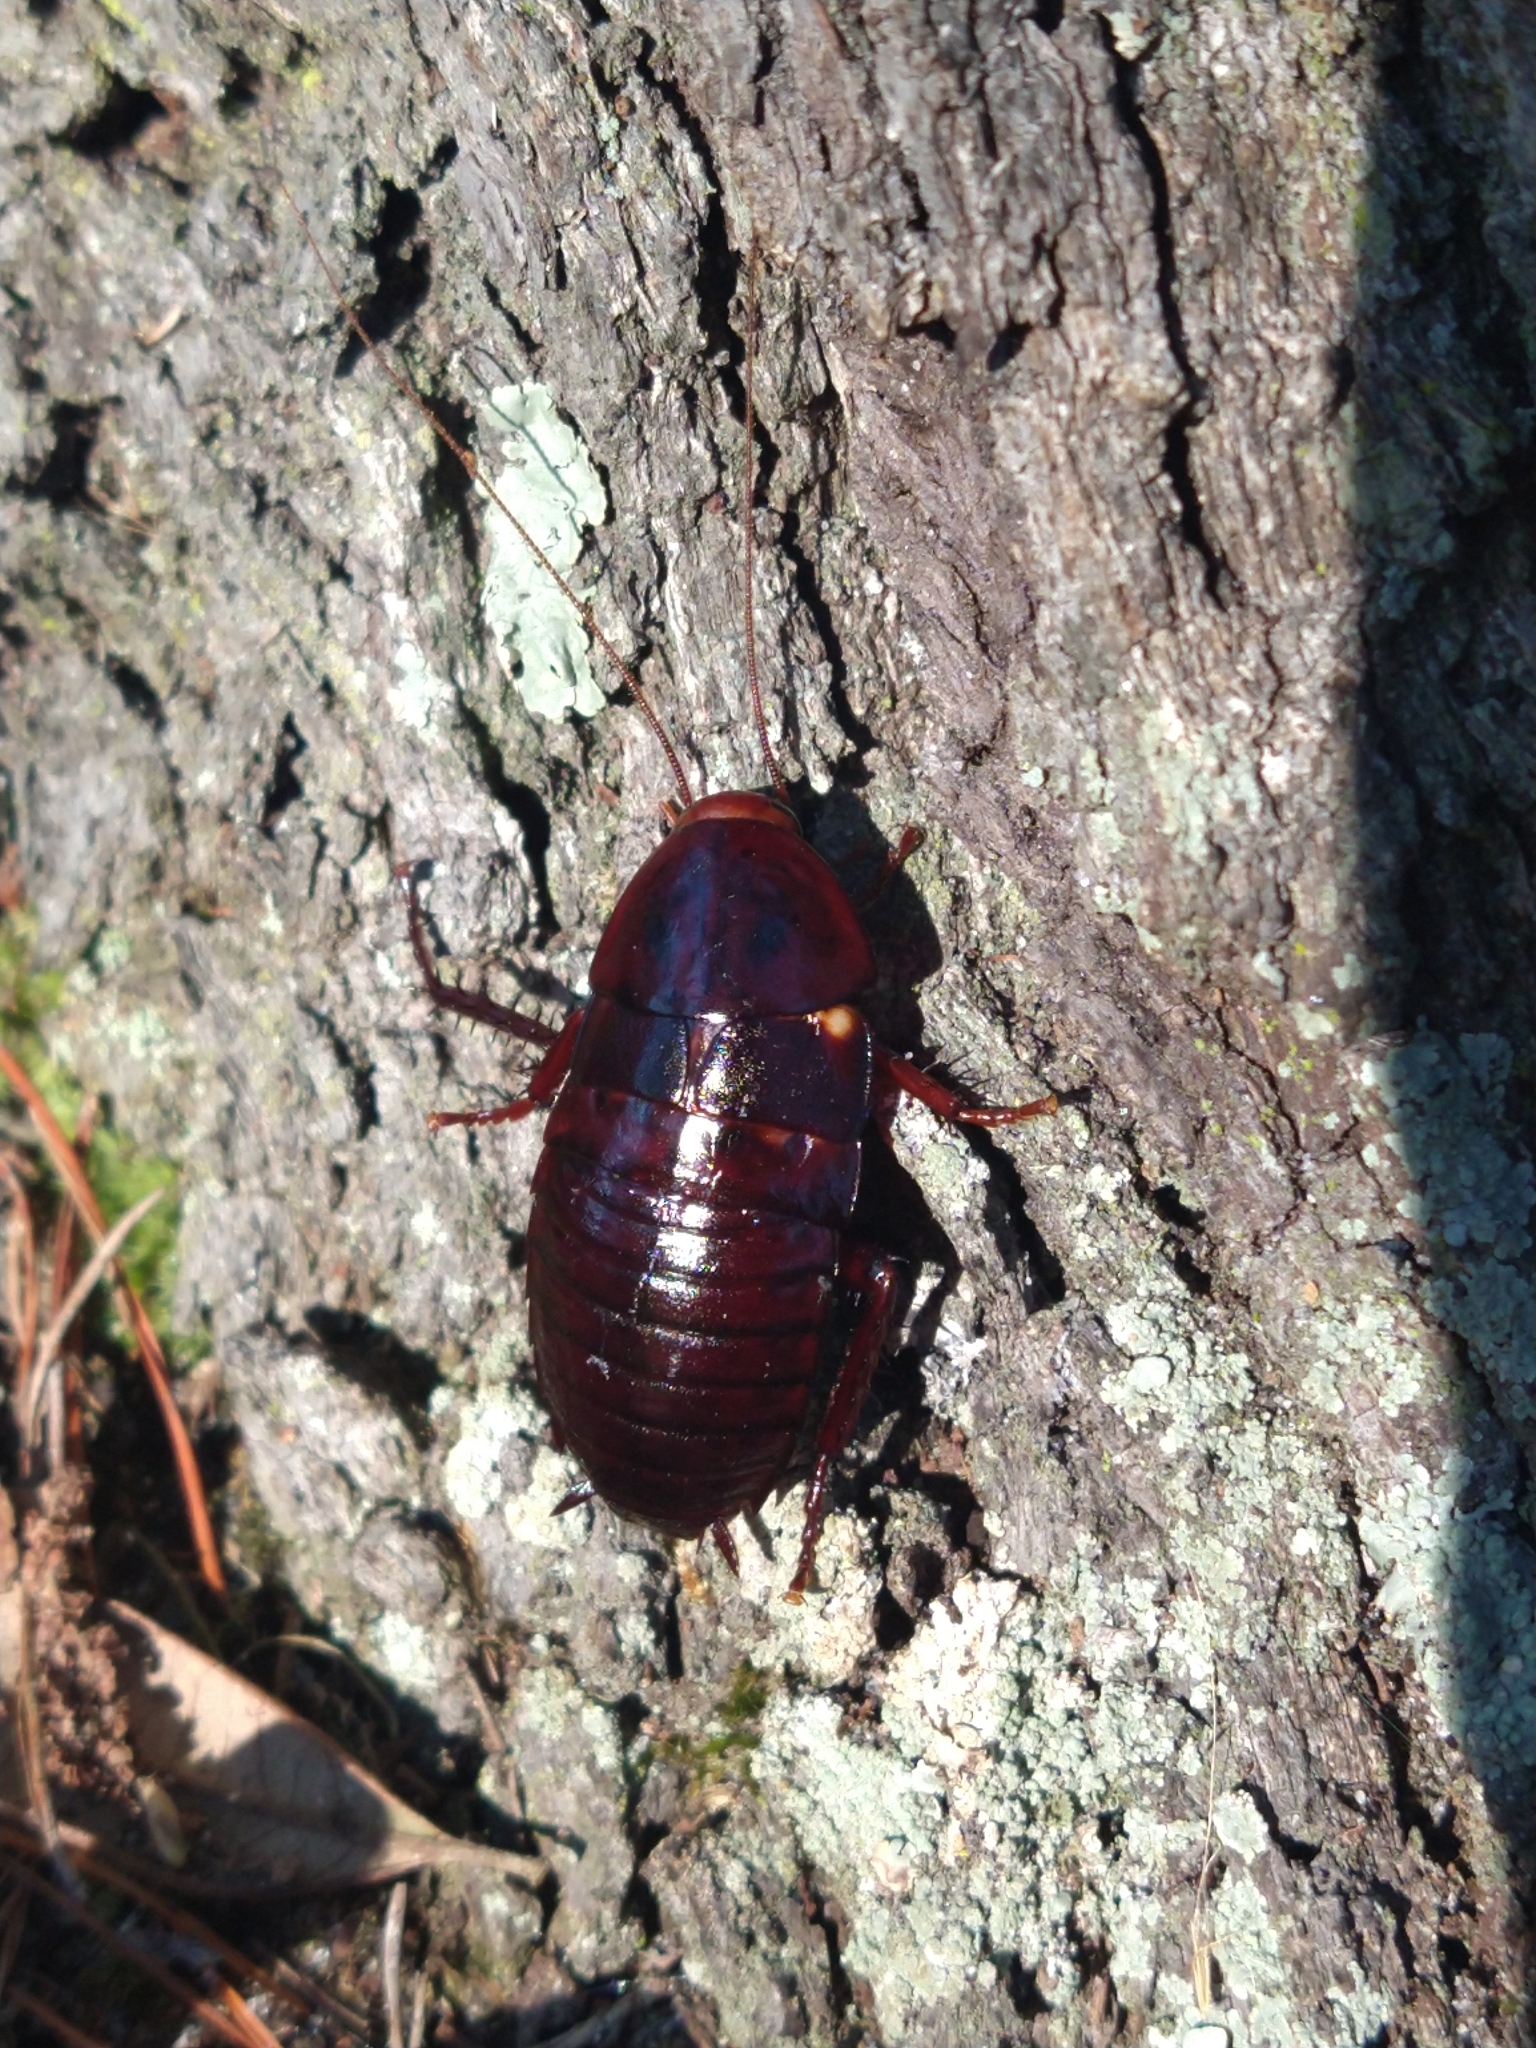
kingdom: Animalia
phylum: Arthropoda
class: Insecta
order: Blattodea
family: Blattidae
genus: Eurycotis
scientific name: Eurycotis floridana
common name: Florida cockroach
